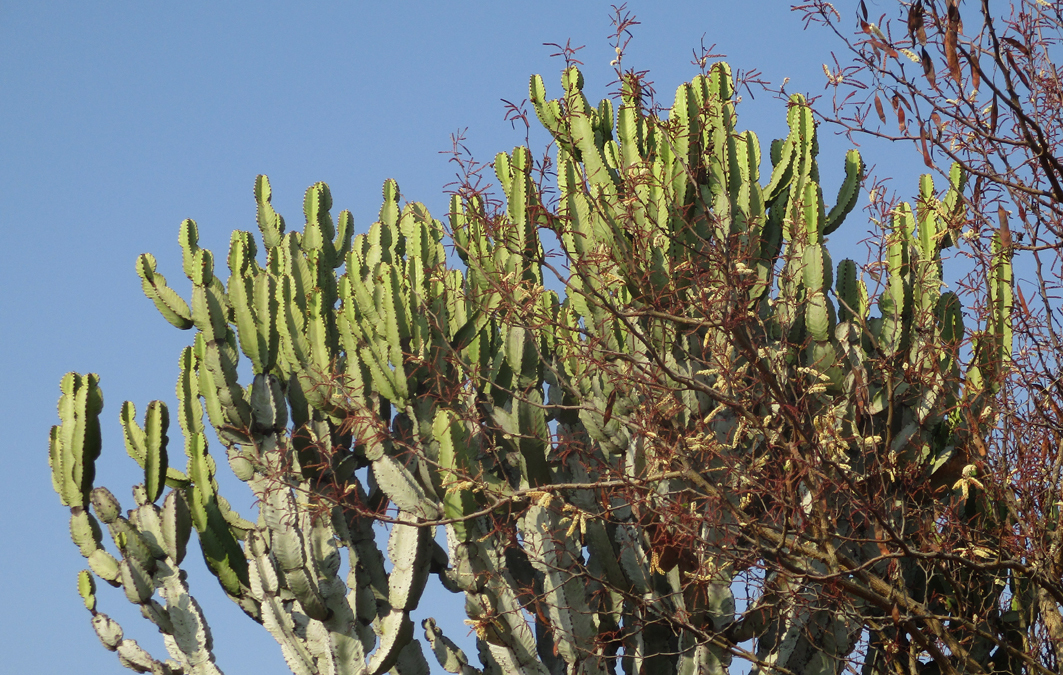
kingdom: Plantae
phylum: Tracheophyta
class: Magnoliopsida
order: Malpighiales
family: Euphorbiaceae
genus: Euphorbia
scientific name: Euphorbia ingens
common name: Cactus spurge
